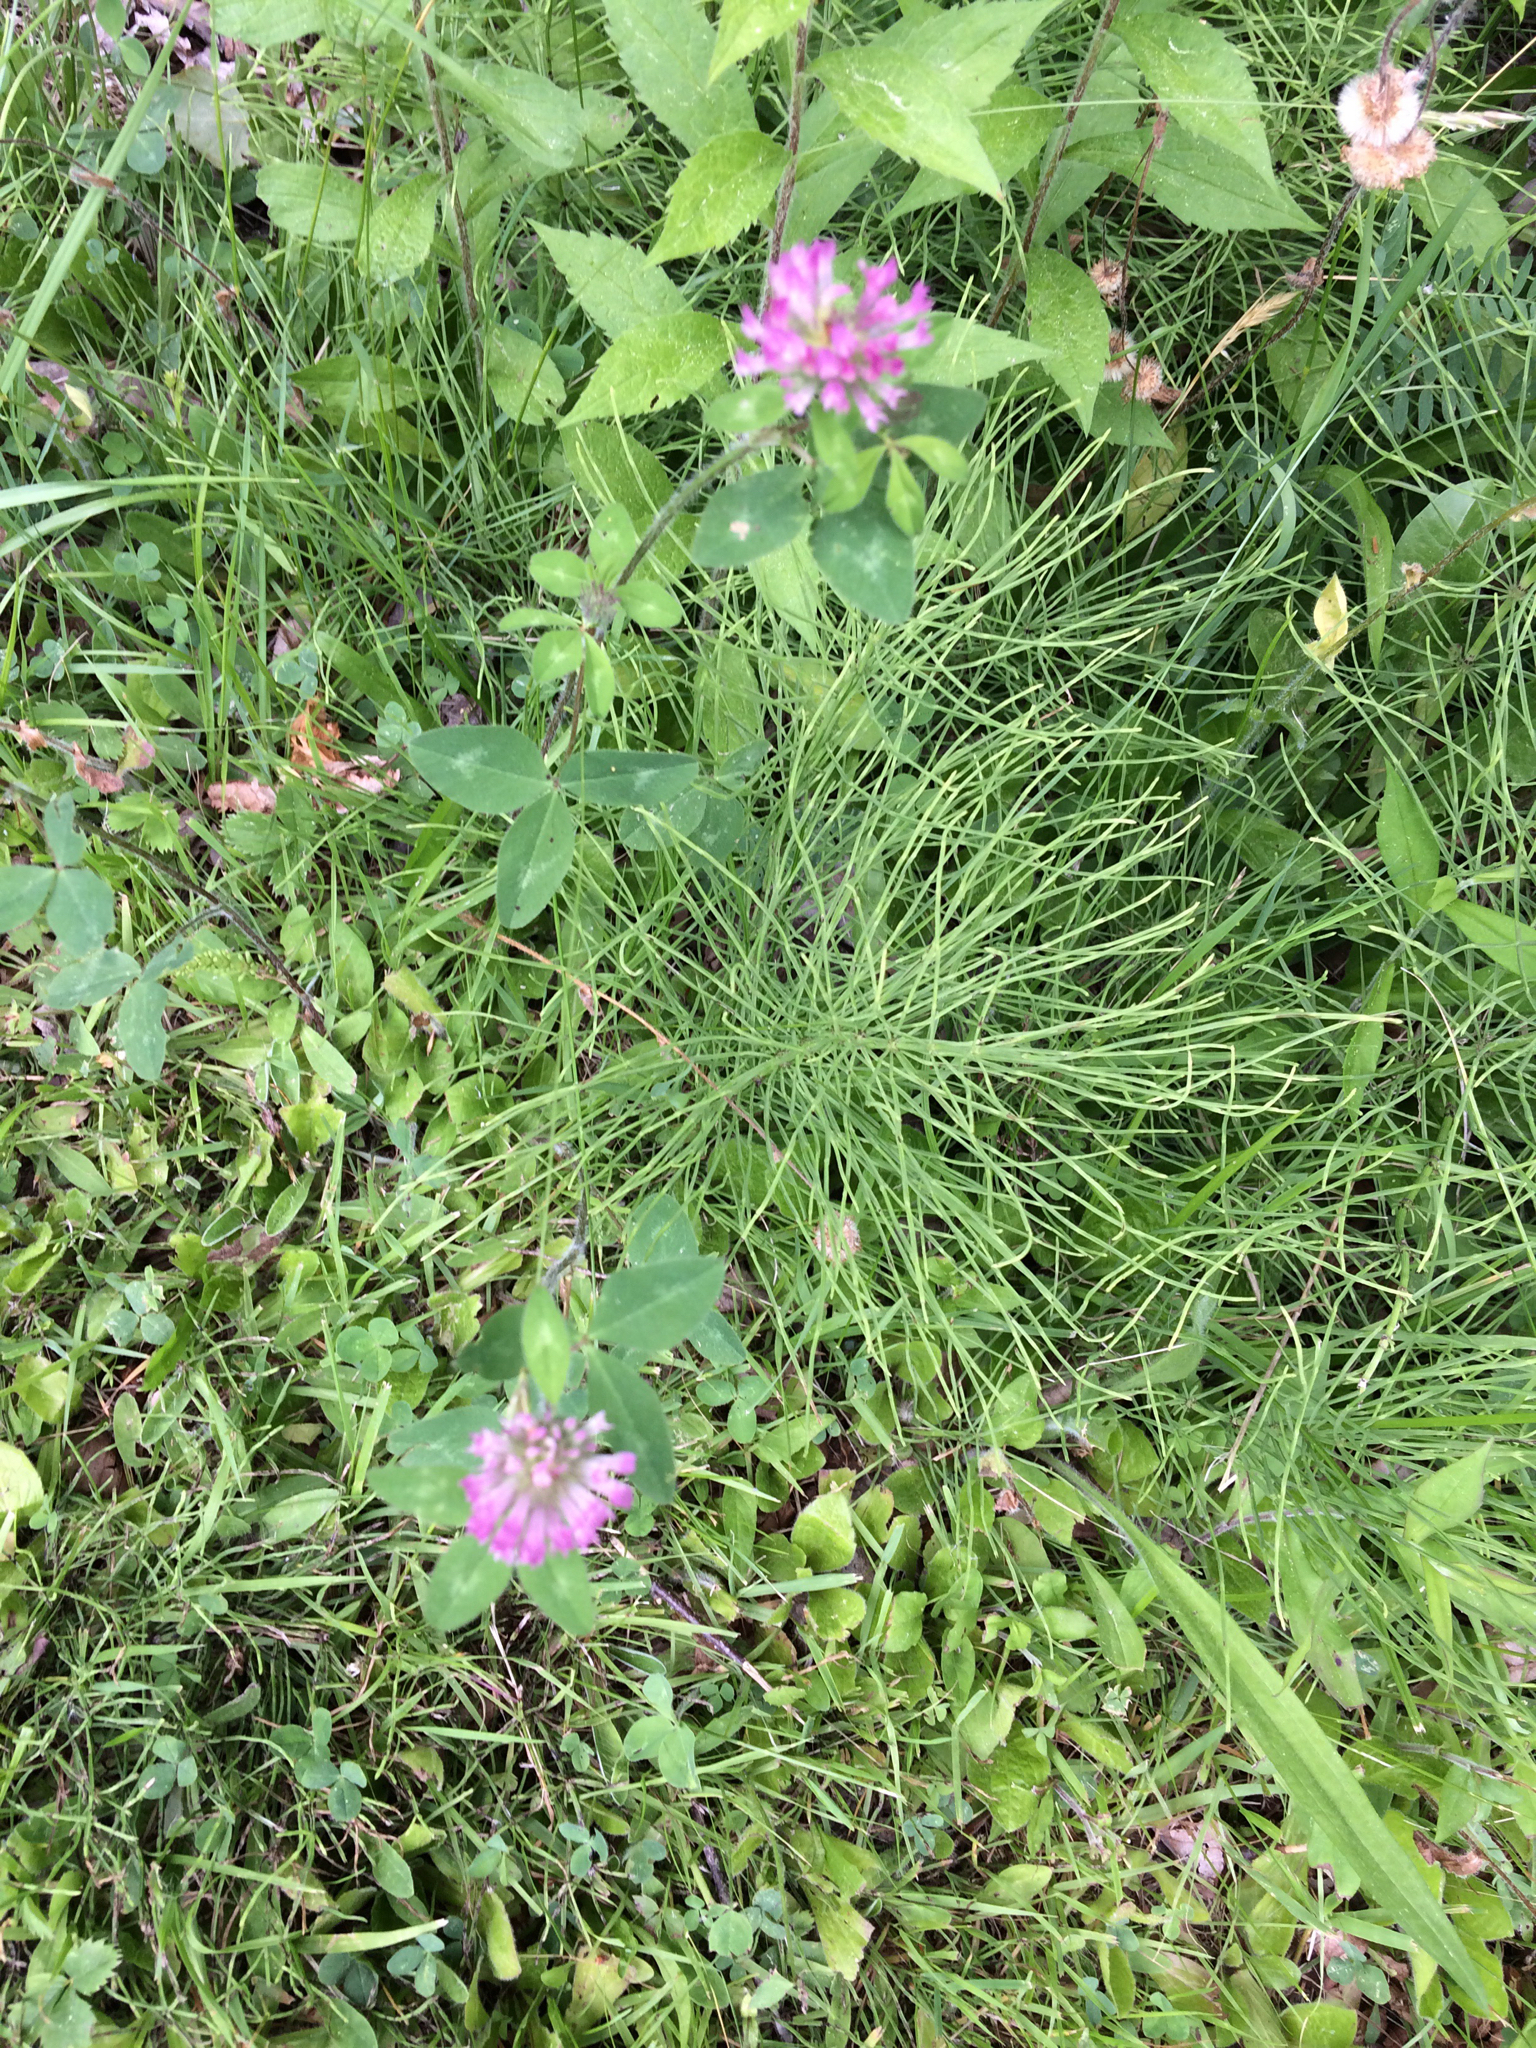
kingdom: Plantae
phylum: Tracheophyta
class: Magnoliopsida
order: Fabales
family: Fabaceae
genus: Trifolium
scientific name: Trifolium pratense
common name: Red clover
